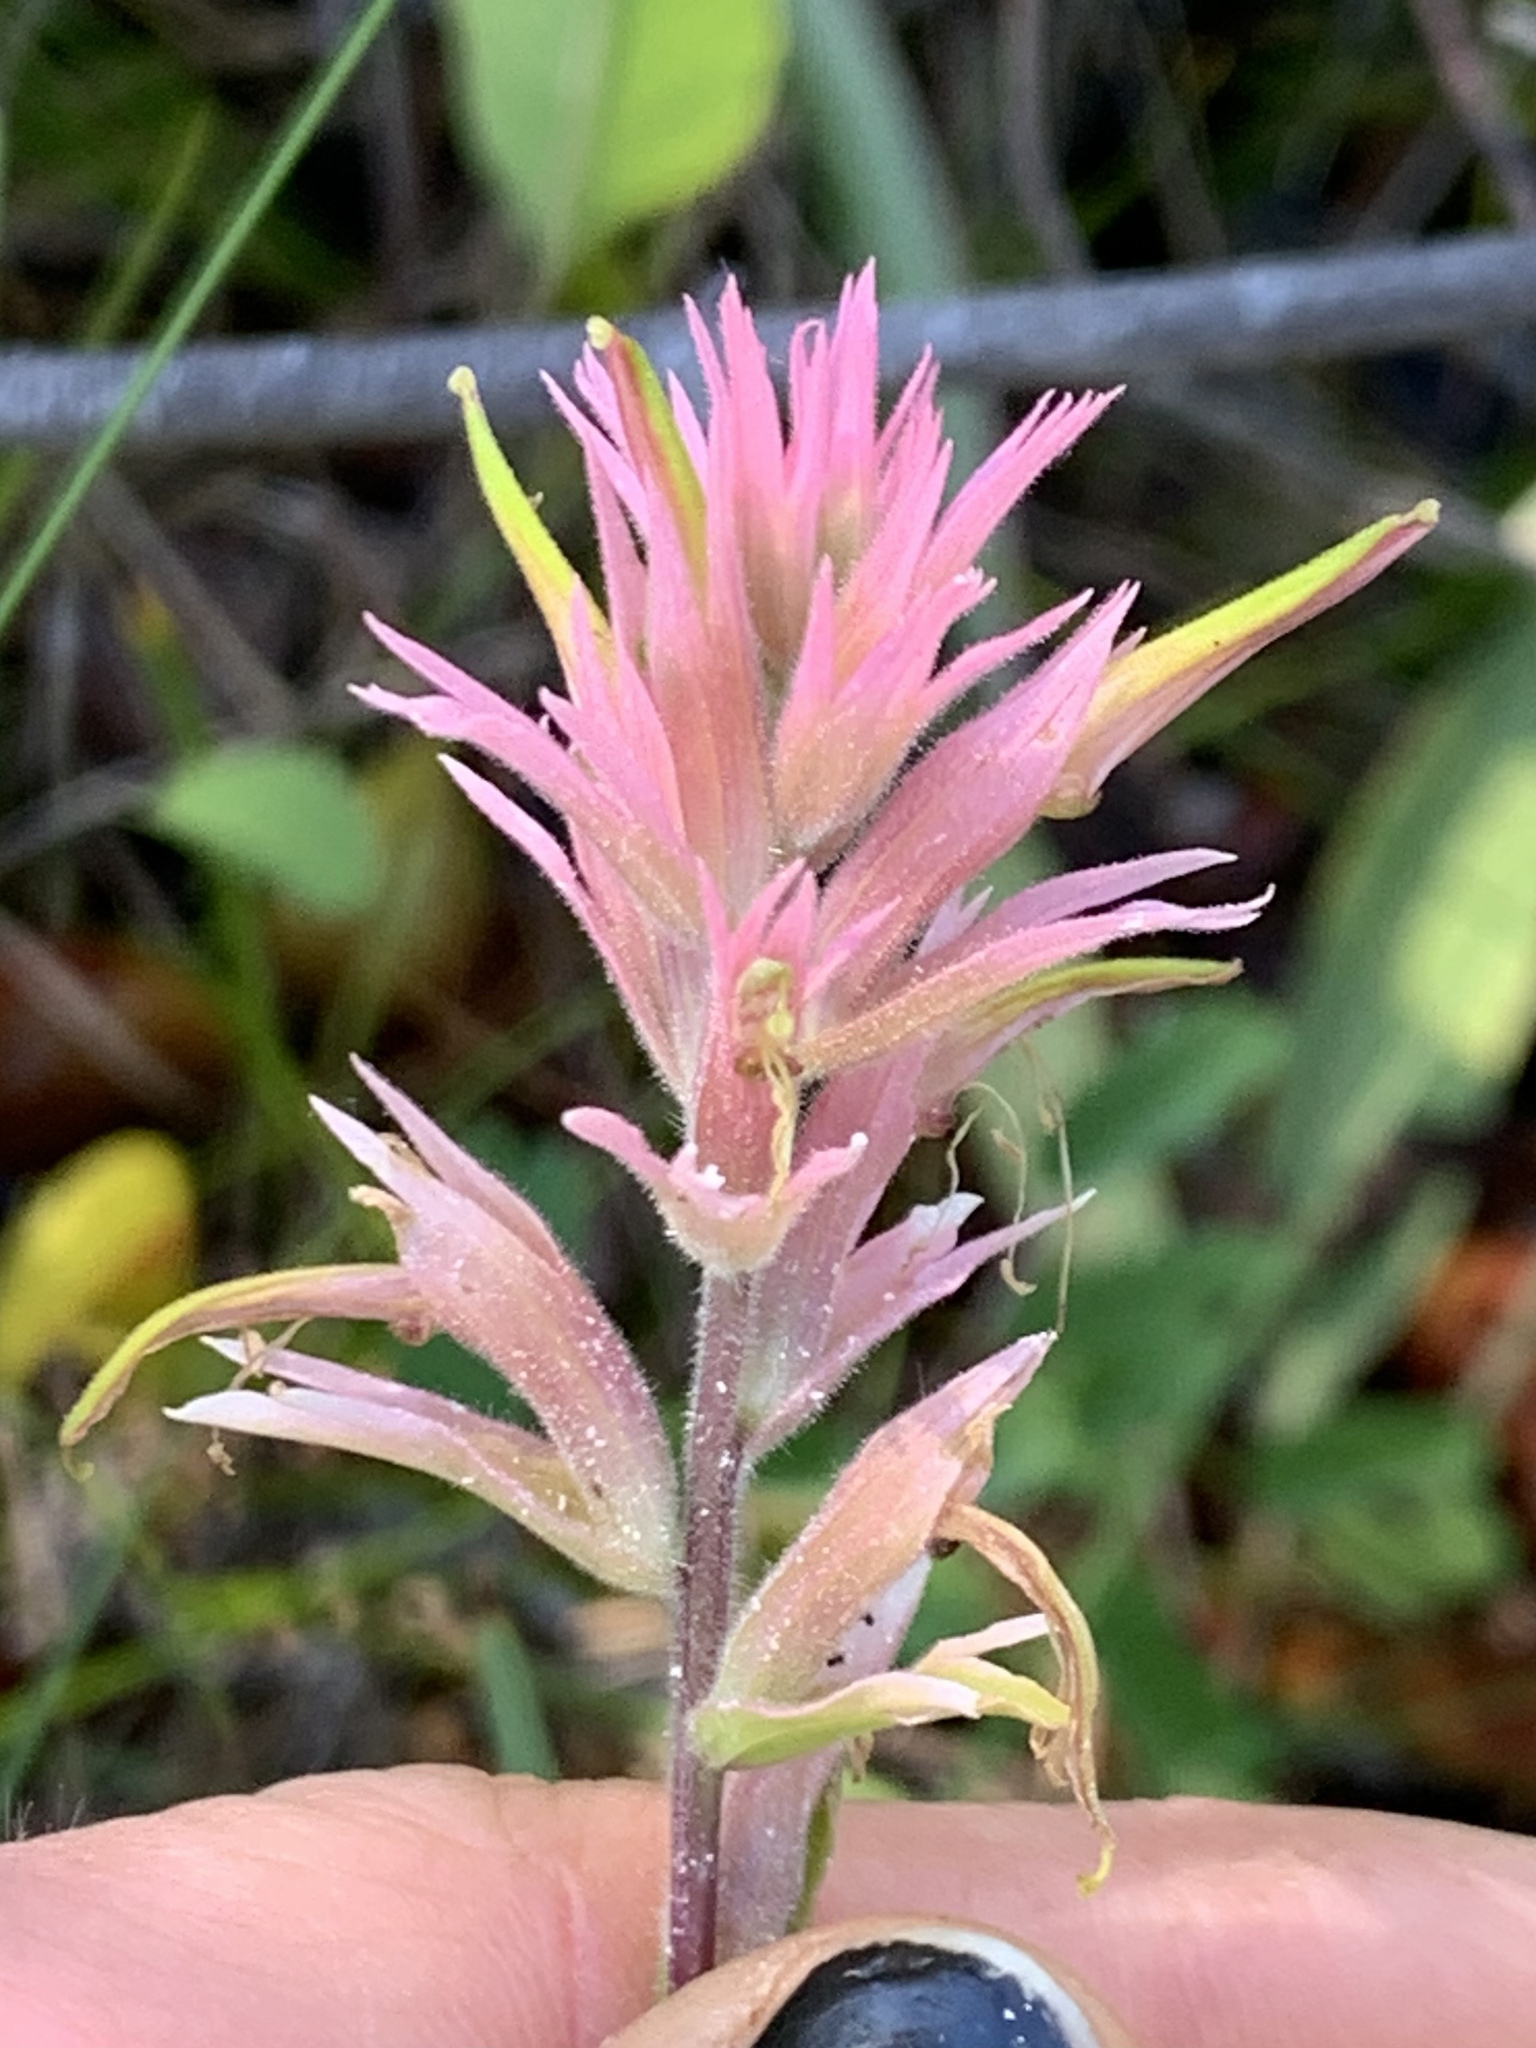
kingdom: Plantae
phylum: Tracheophyta
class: Magnoliopsida
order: Lamiales
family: Orobanchaceae
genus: Castilleja
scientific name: Castilleja elata
